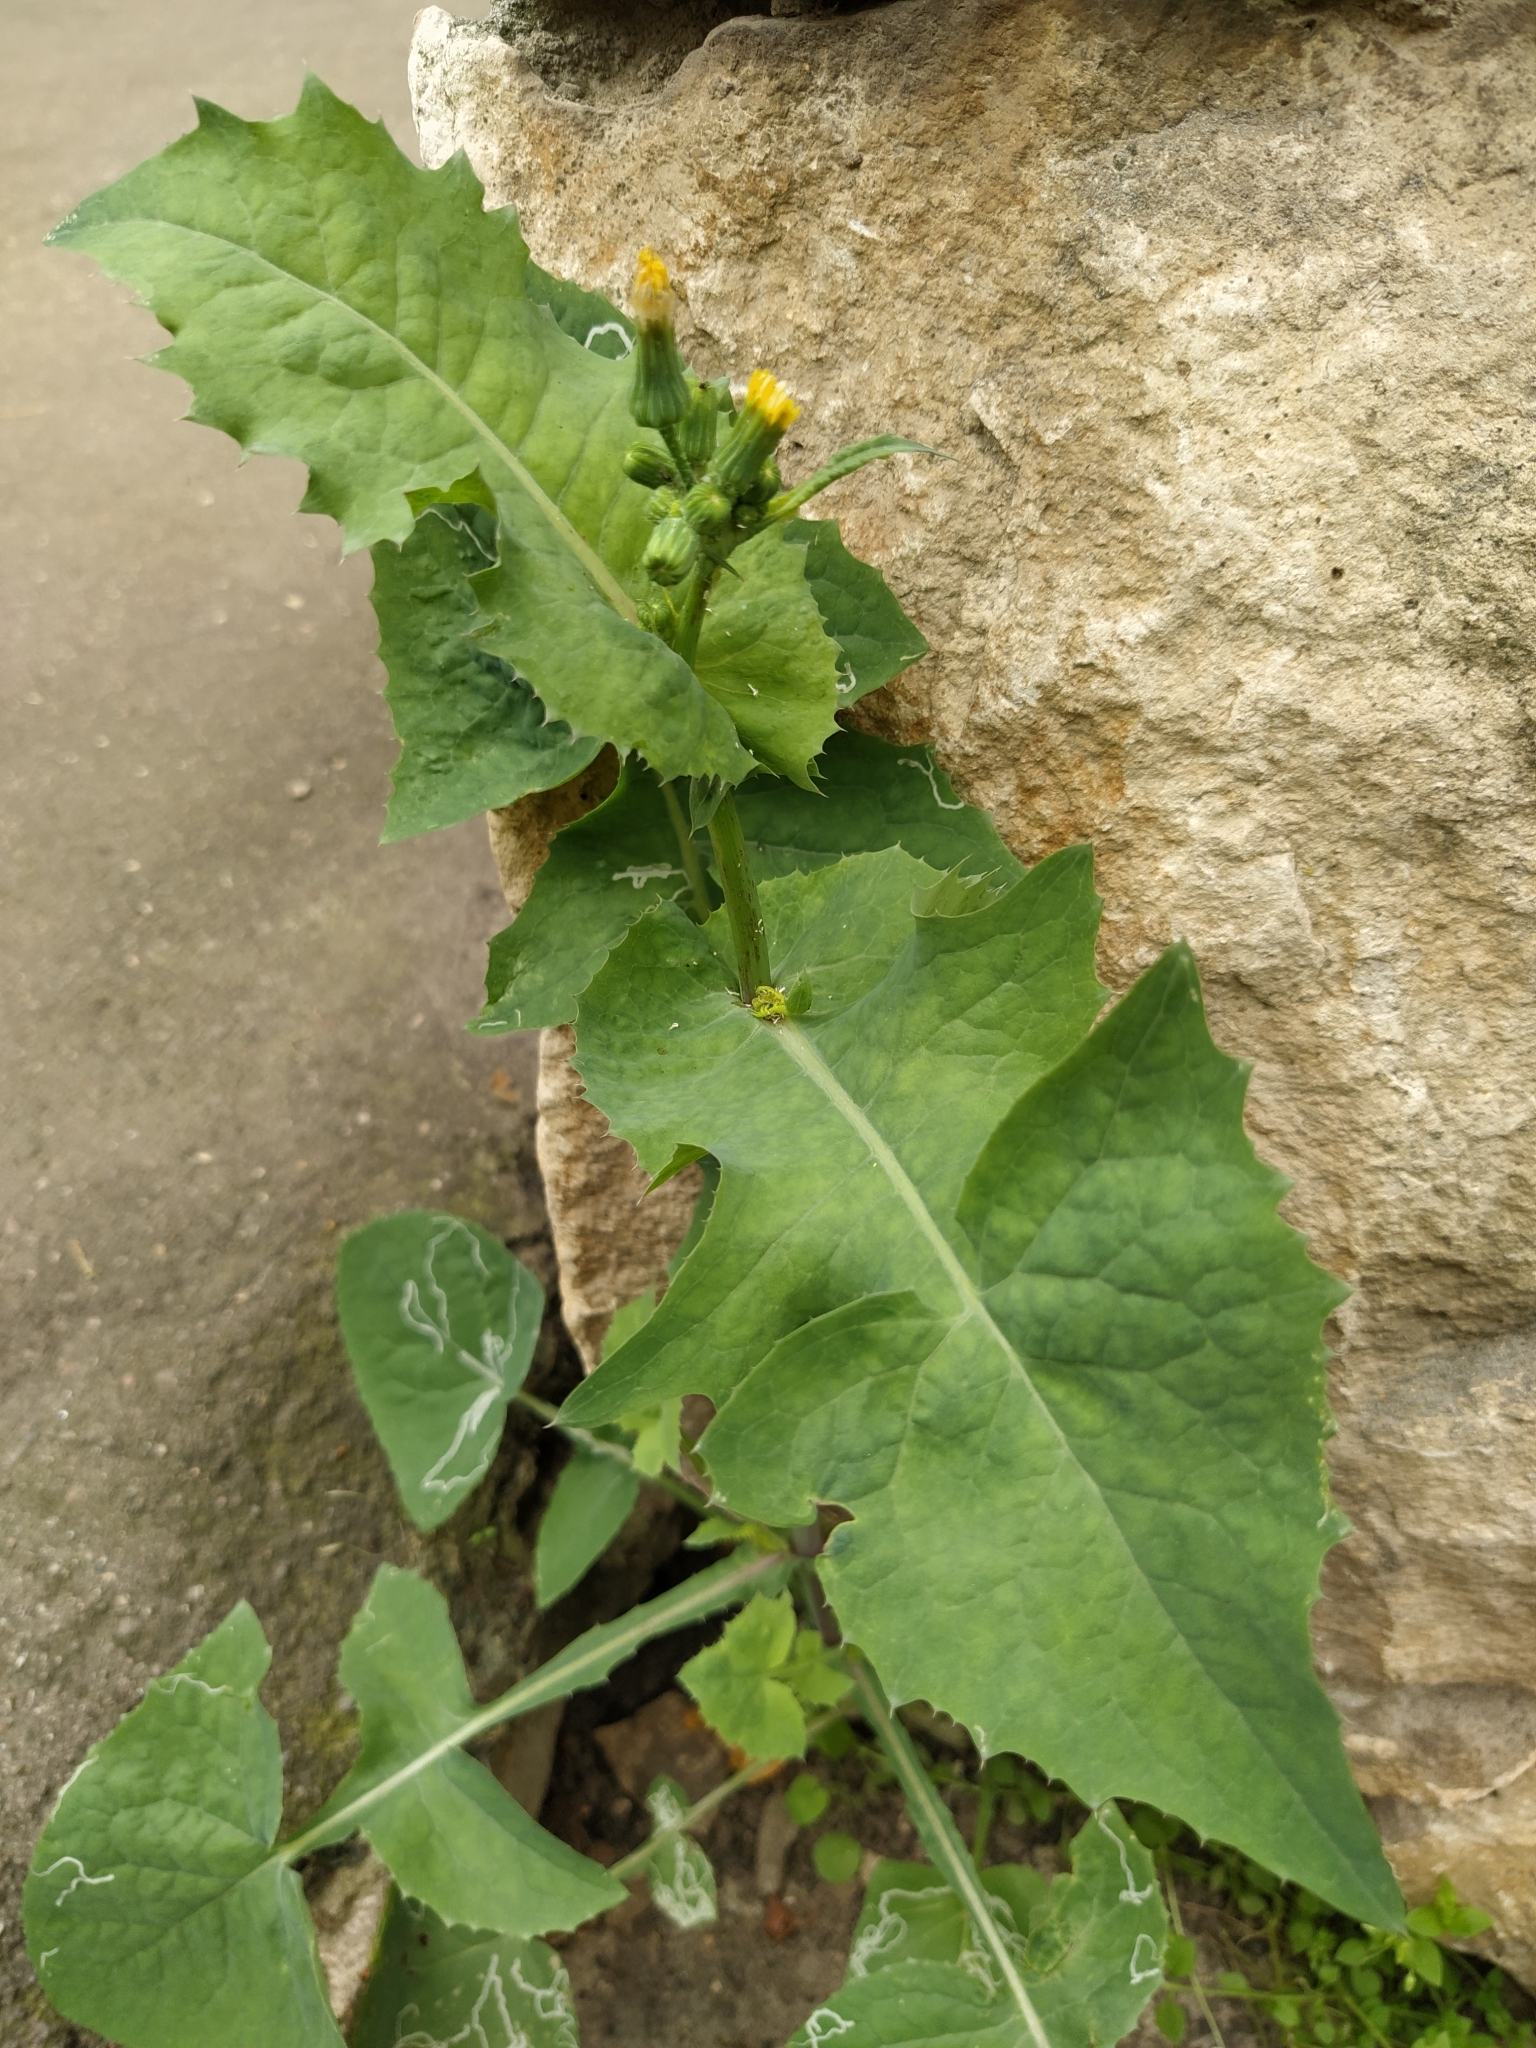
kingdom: Plantae
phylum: Tracheophyta
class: Magnoliopsida
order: Asterales
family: Asteraceae
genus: Sonchus
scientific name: Sonchus oleraceus
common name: Common sowthistle
